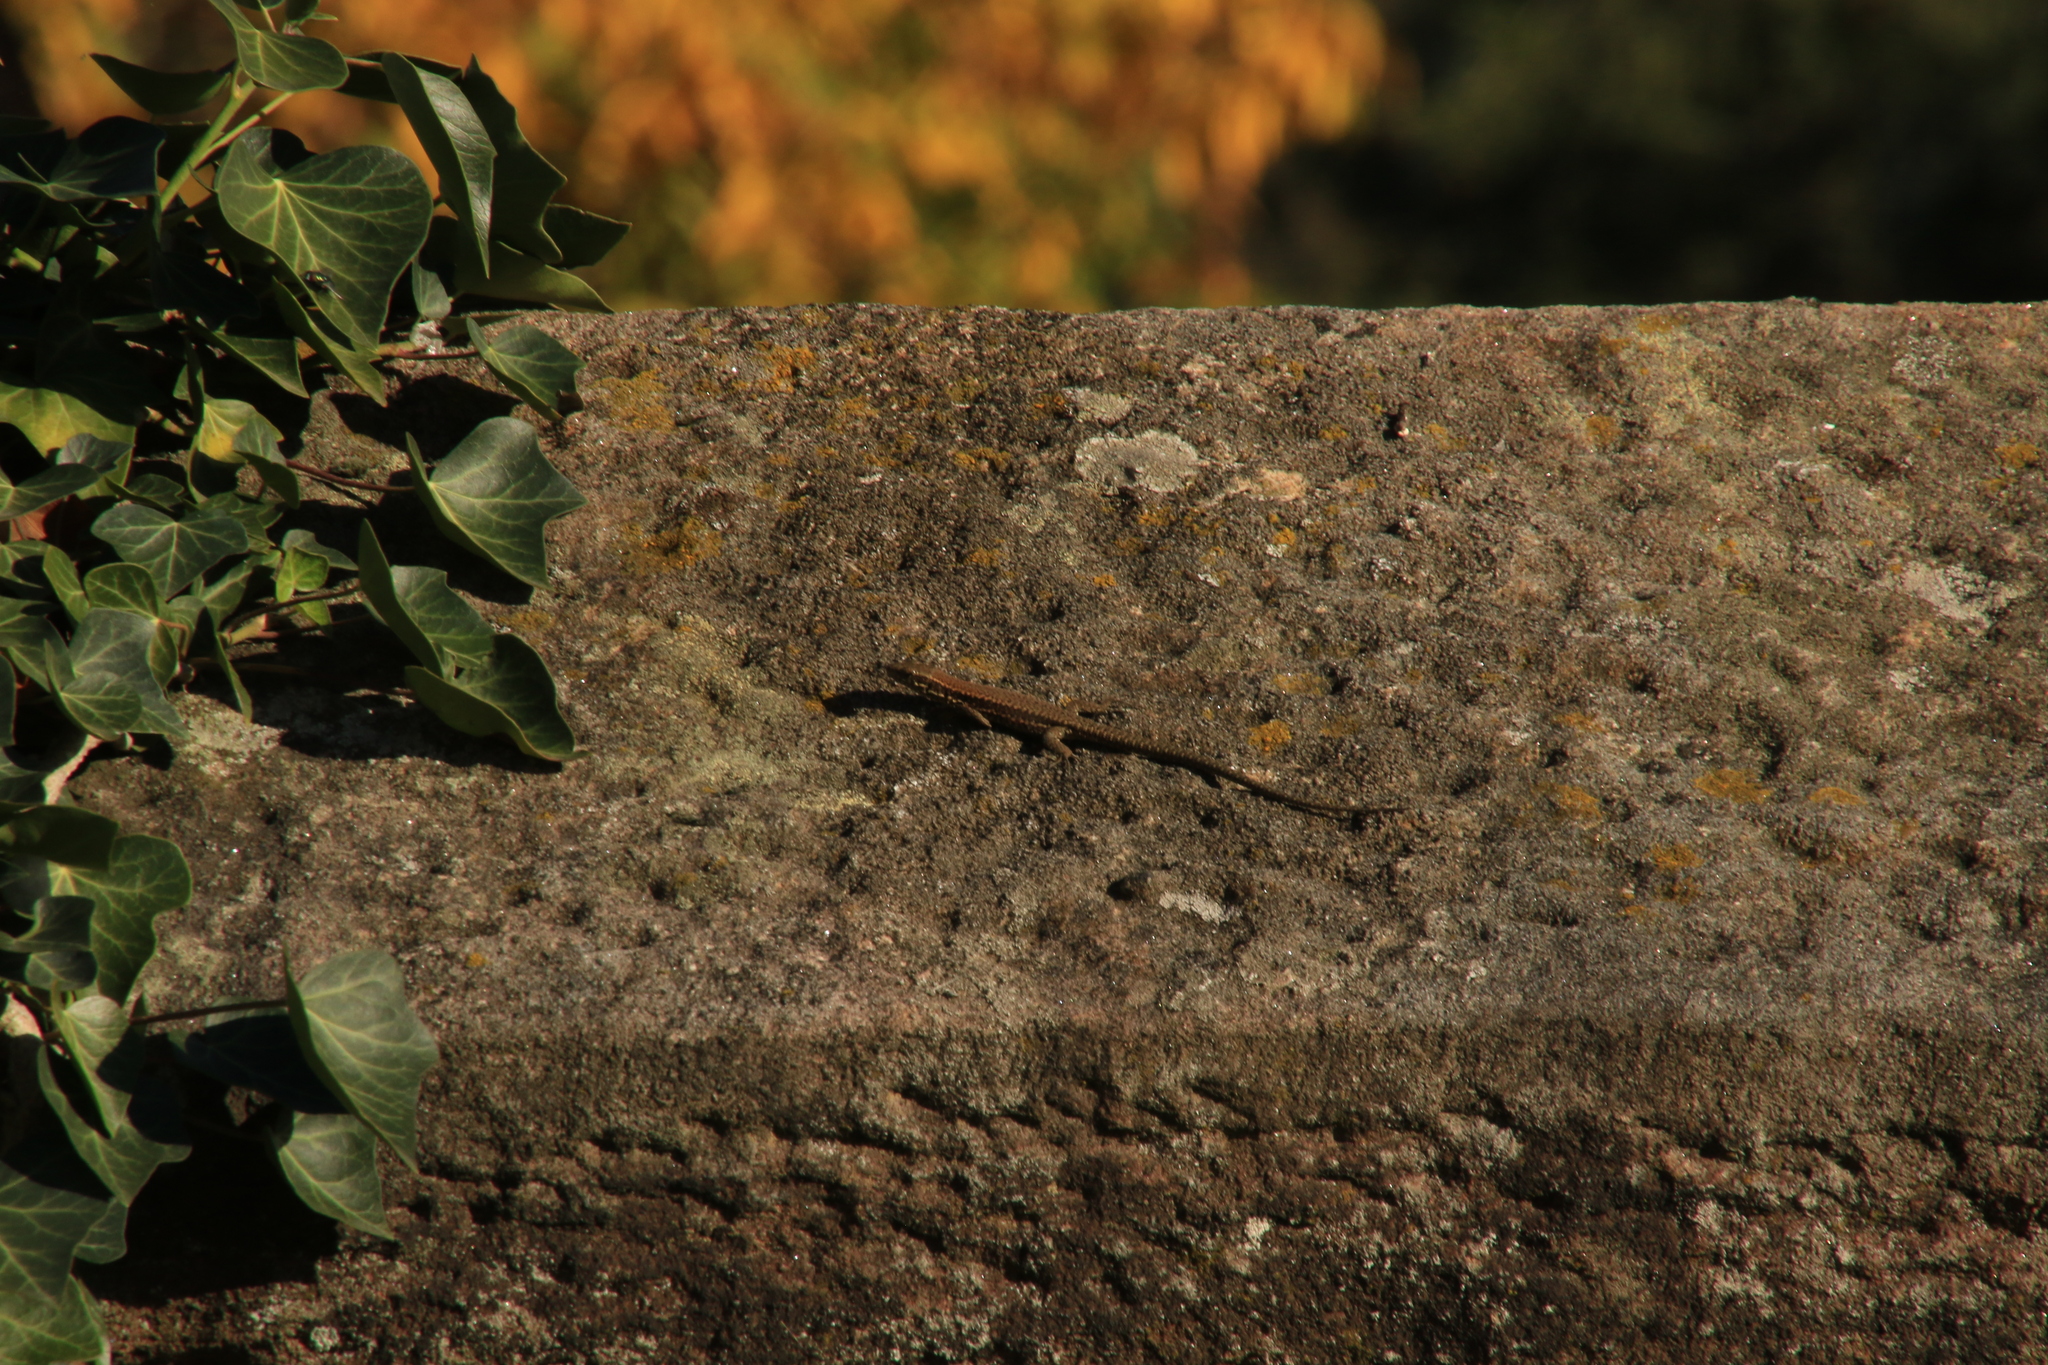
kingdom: Animalia
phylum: Chordata
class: Squamata
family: Lacertidae
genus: Podarcis
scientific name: Podarcis muralis
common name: Common wall lizard
